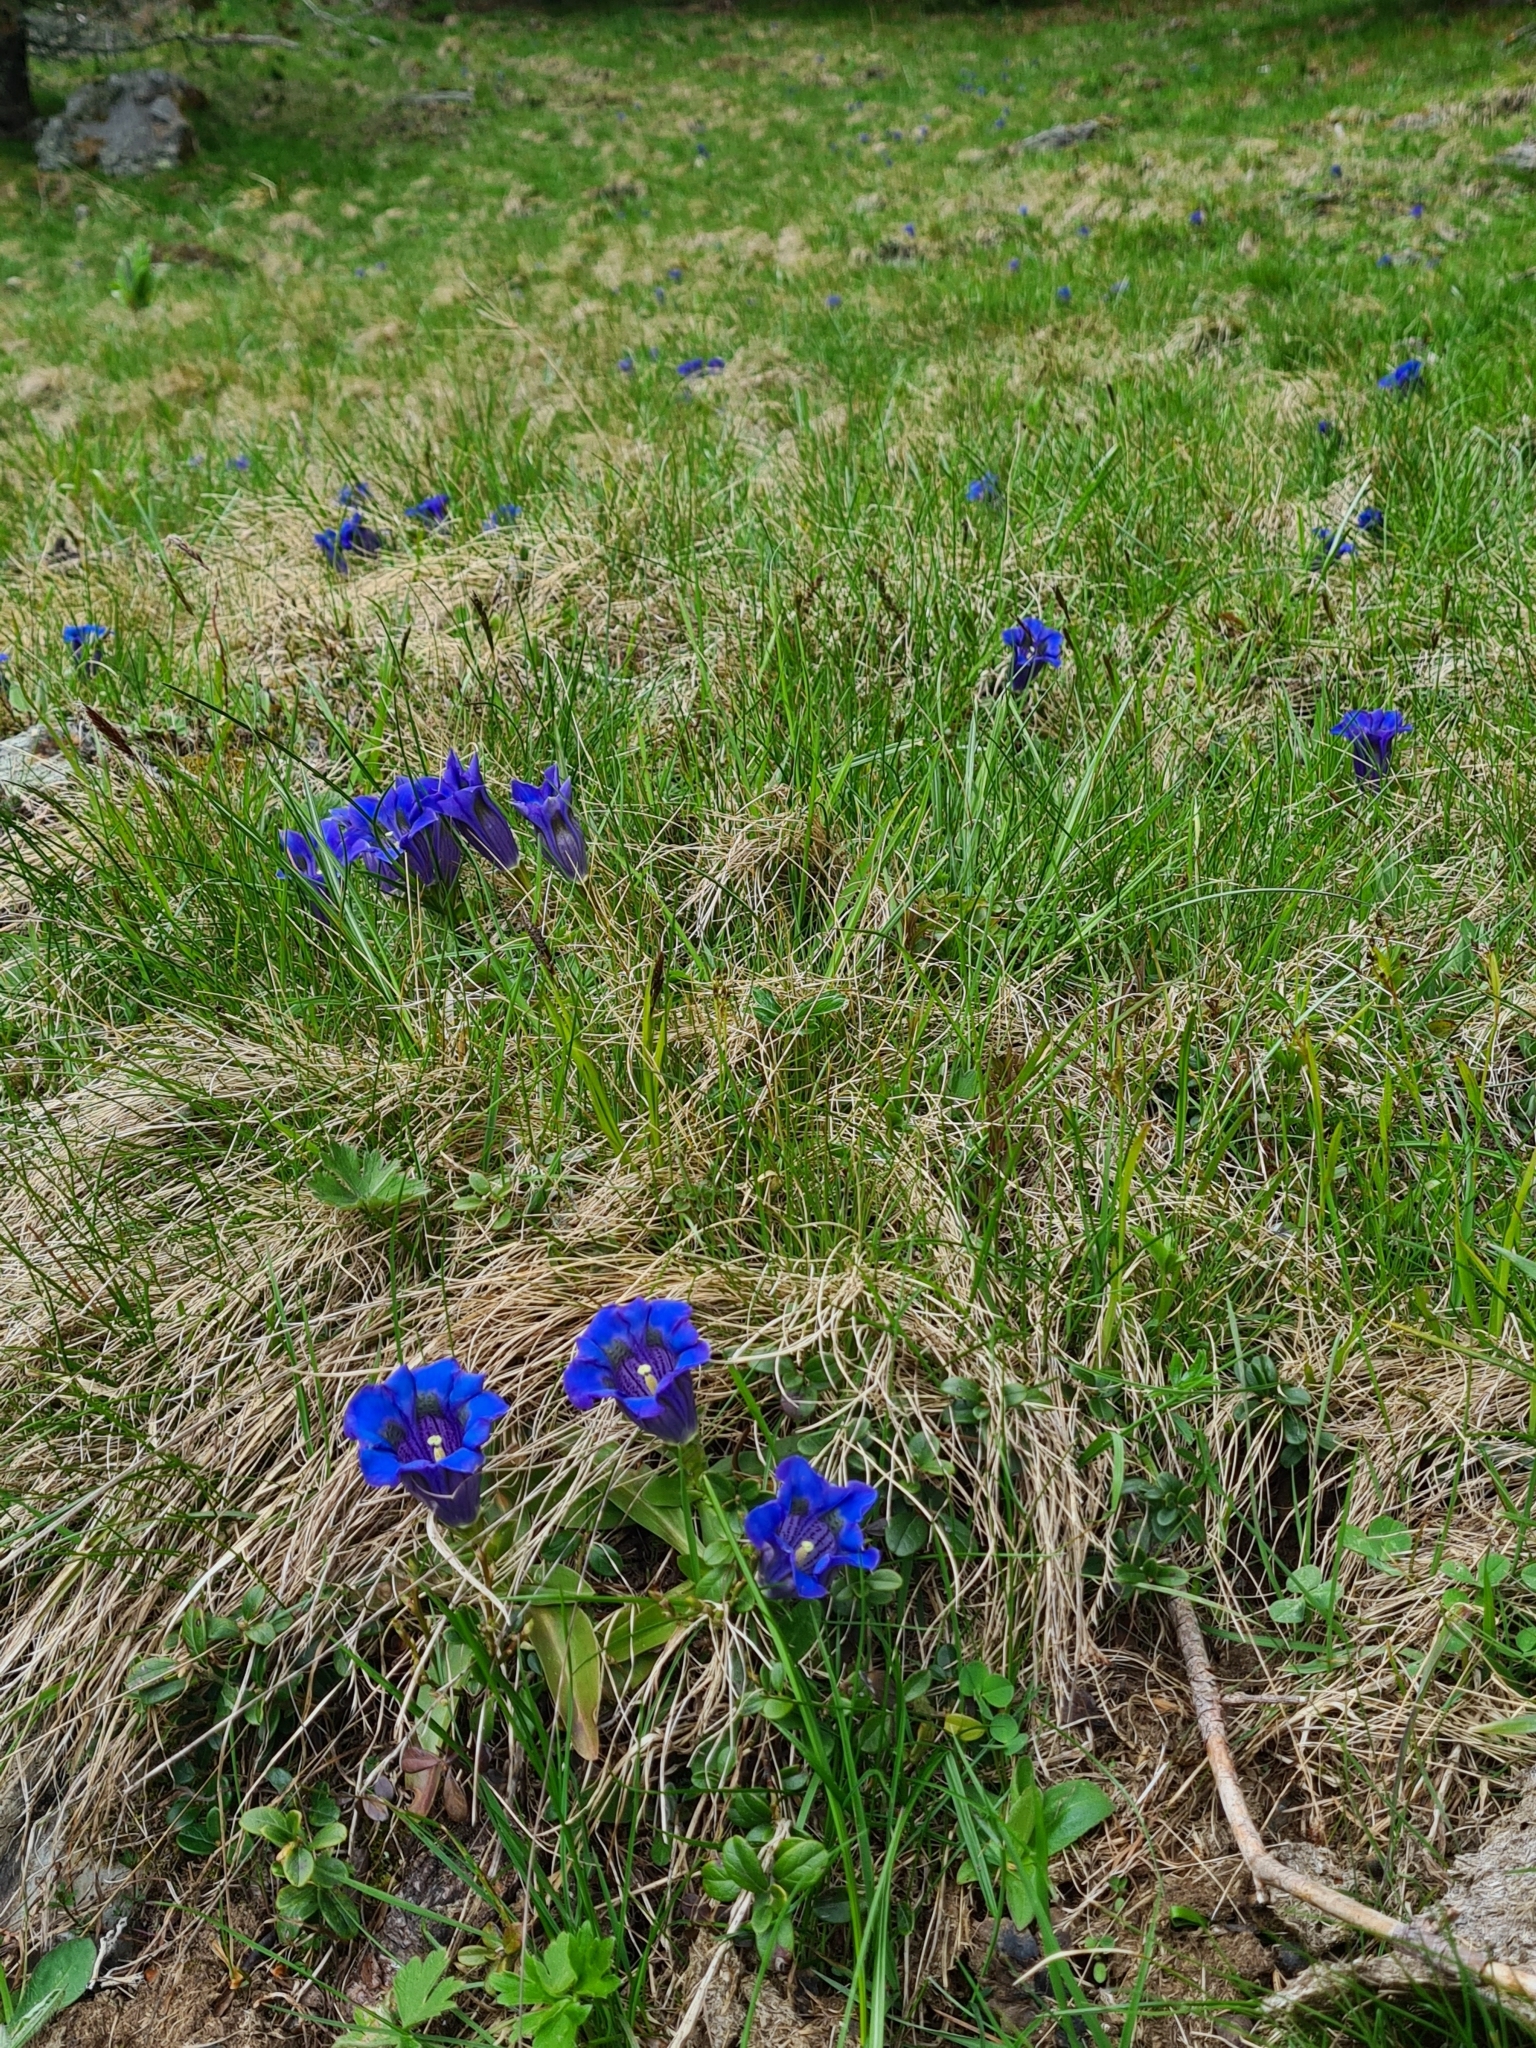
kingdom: Plantae
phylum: Tracheophyta
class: Magnoliopsida
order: Gentianales
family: Gentianaceae
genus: Gentiana
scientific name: Gentiana acaulis
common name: Trumpet gentian
